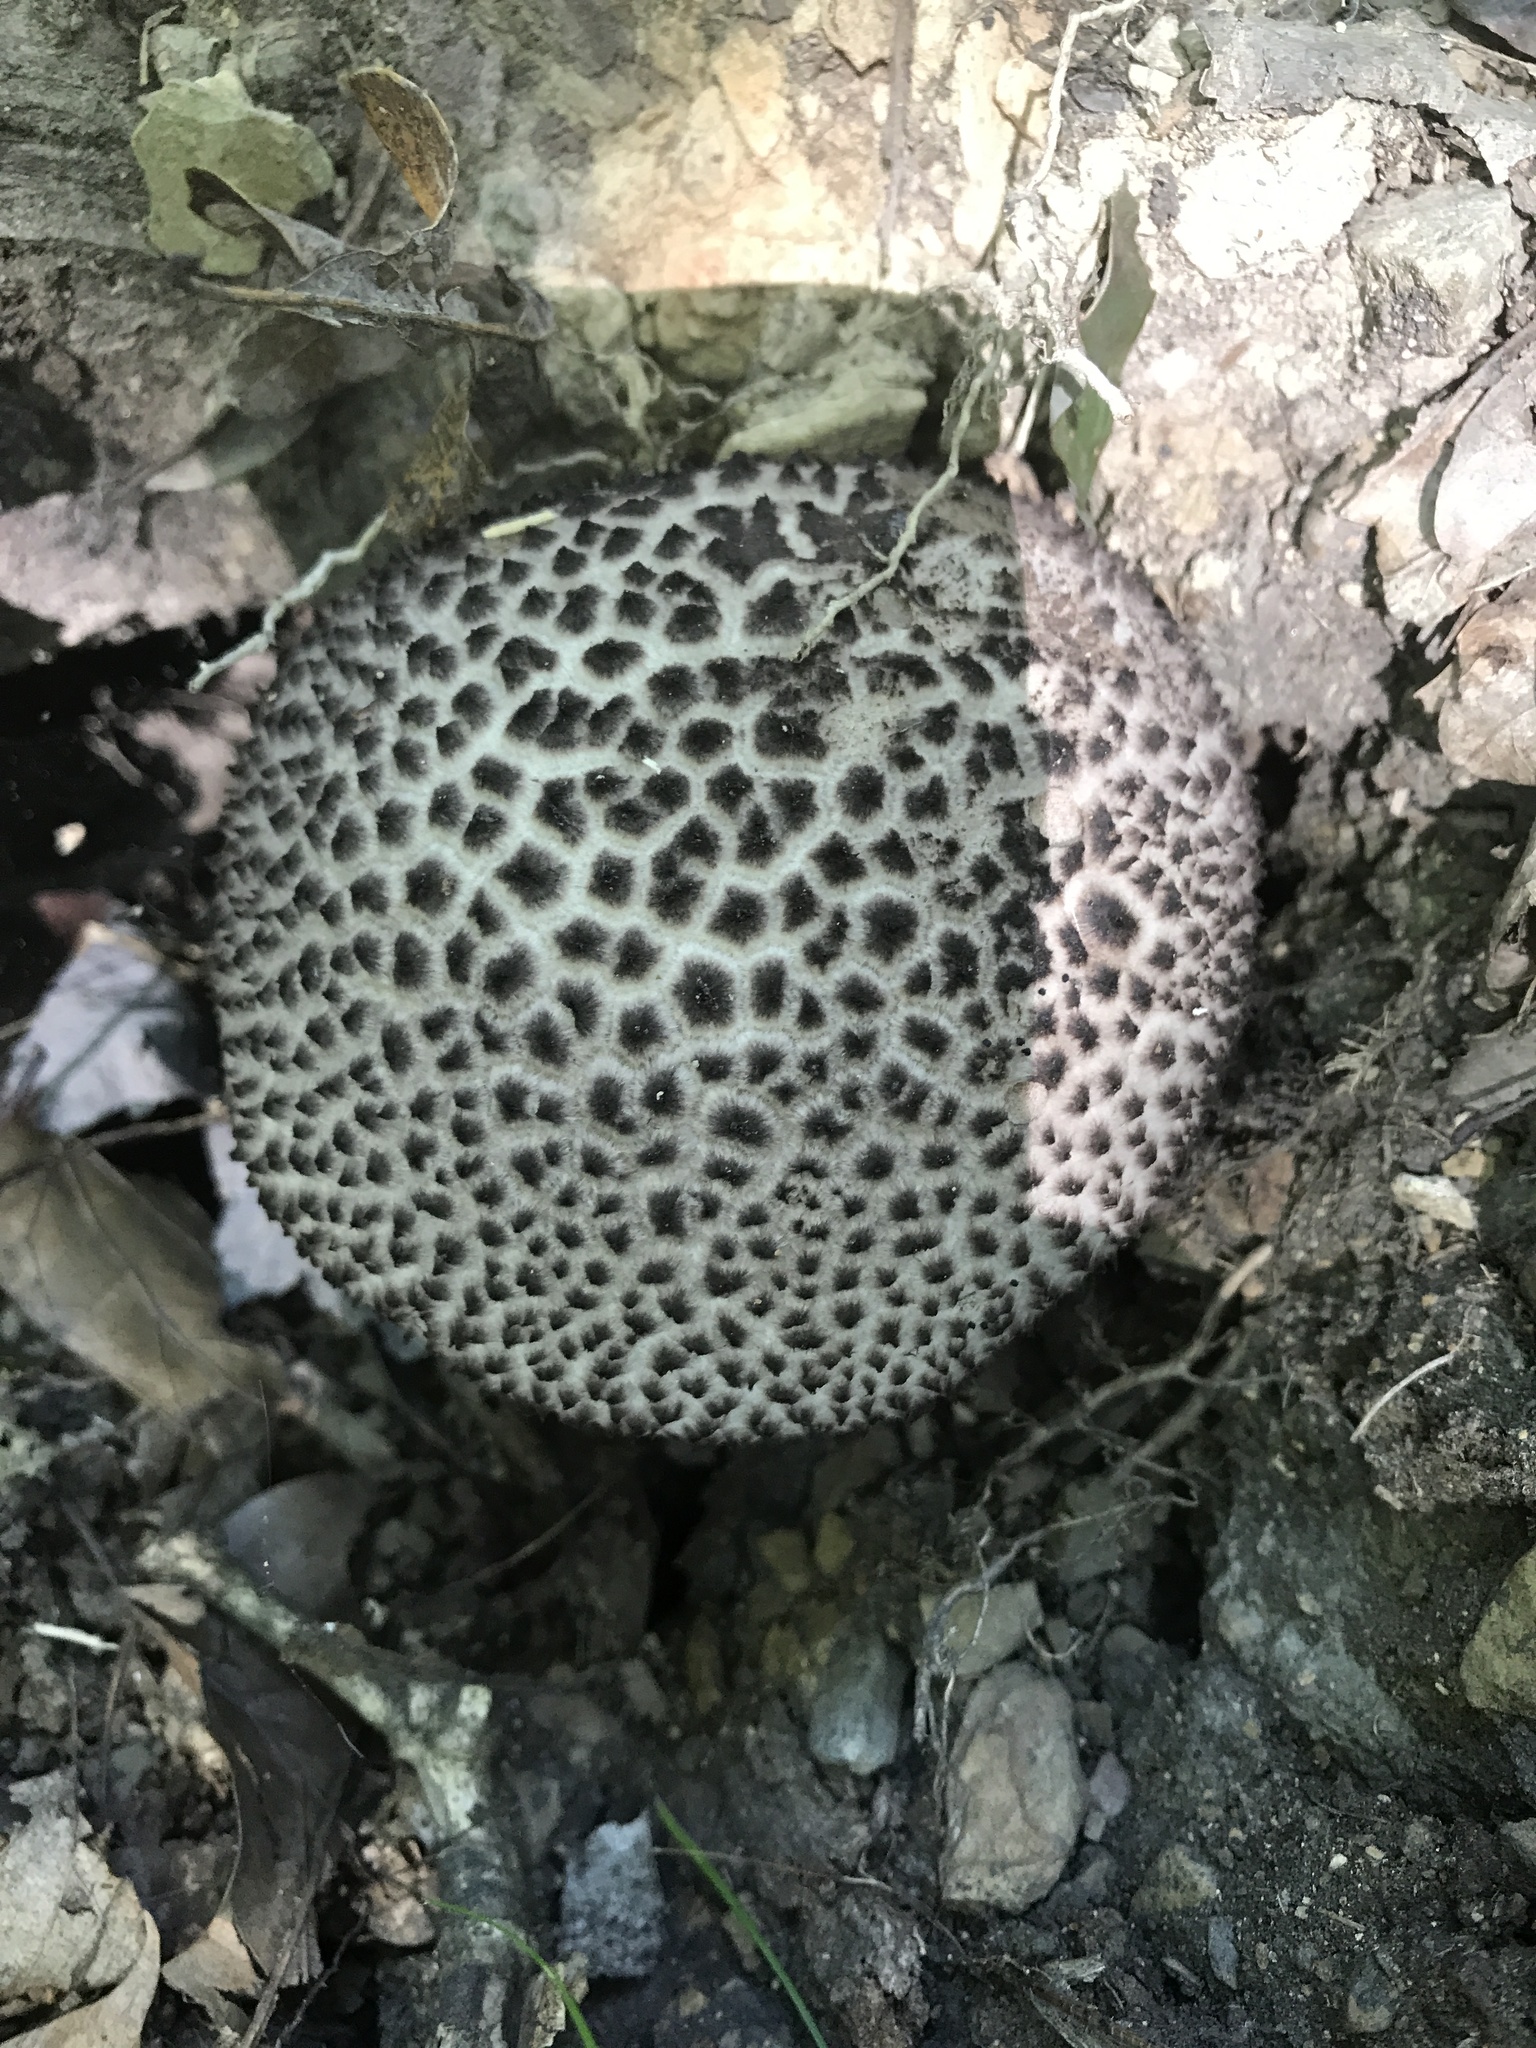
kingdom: Fungi
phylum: Basidiomycota
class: Agaricomycetes
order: Boletales
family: Boletaceae
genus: Strobilomyces
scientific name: Strobilomyces strobilaceus
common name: Old man of the woods
